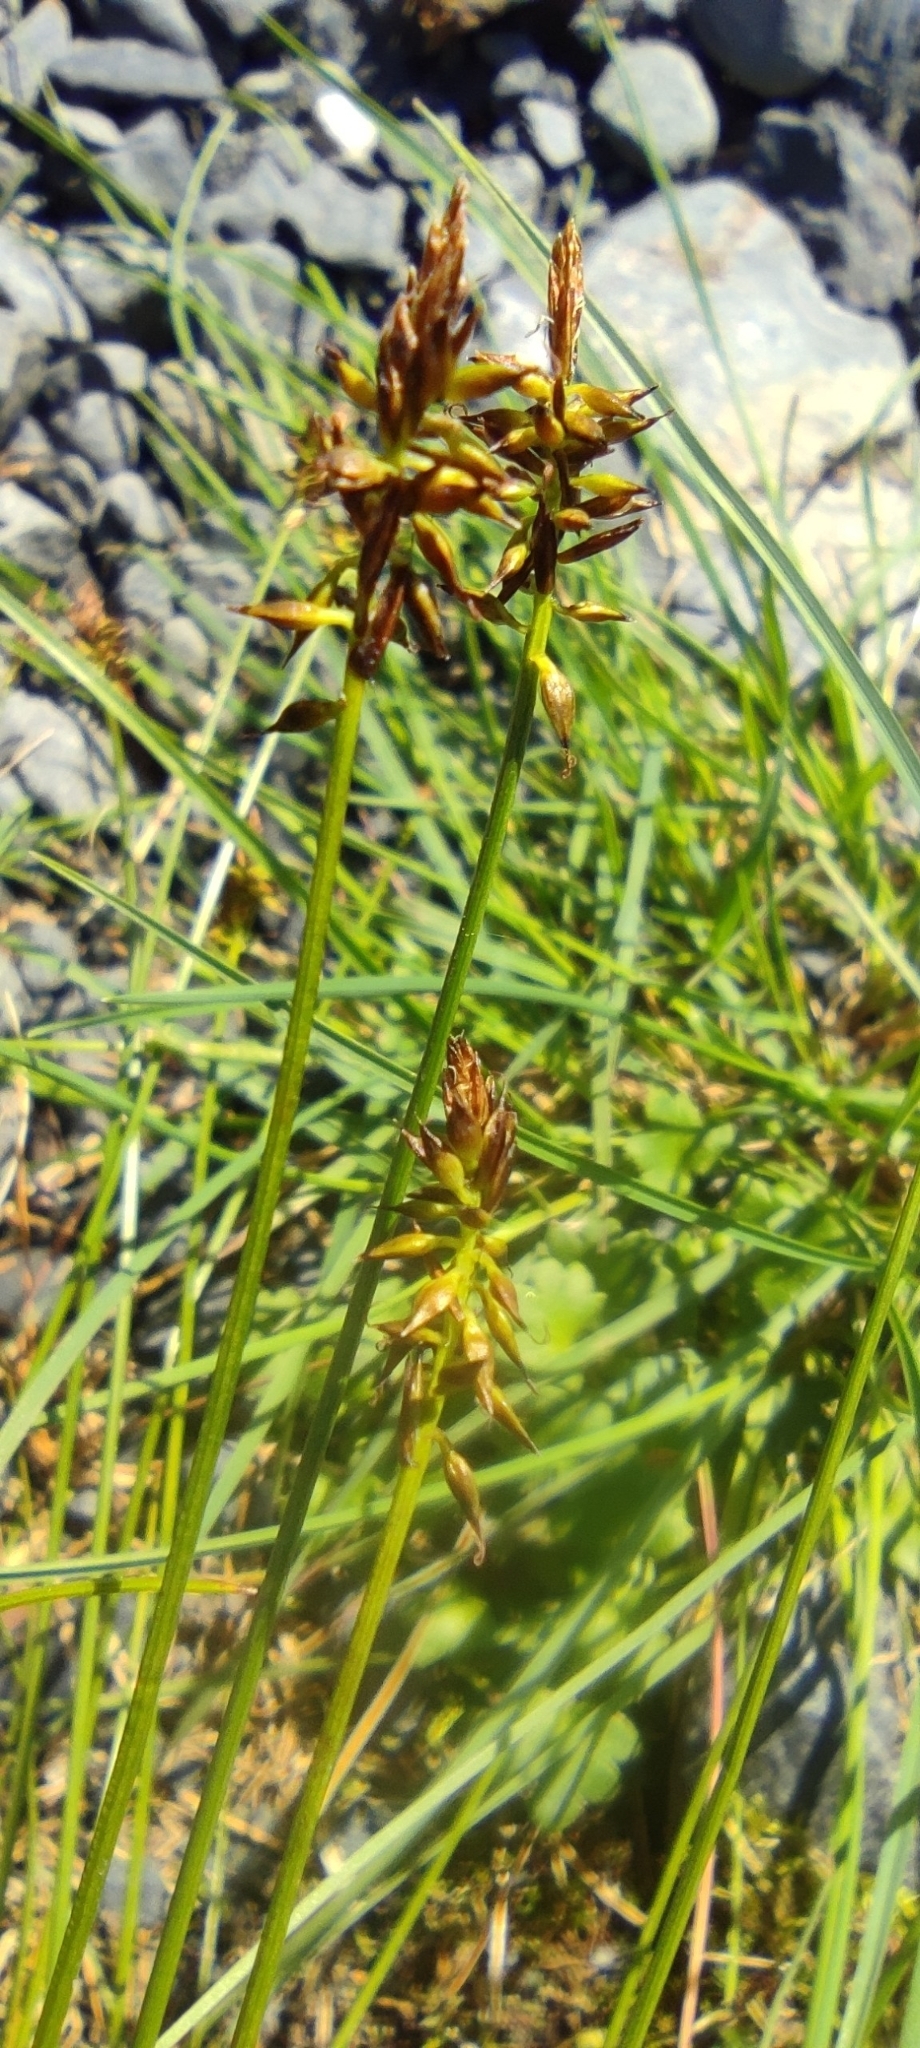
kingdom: Plantae
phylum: Tracheophyta
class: Liliopsida
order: Poales
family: Cyperaceae
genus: Carex
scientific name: Carex micropoda
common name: Small-rooted sedge
